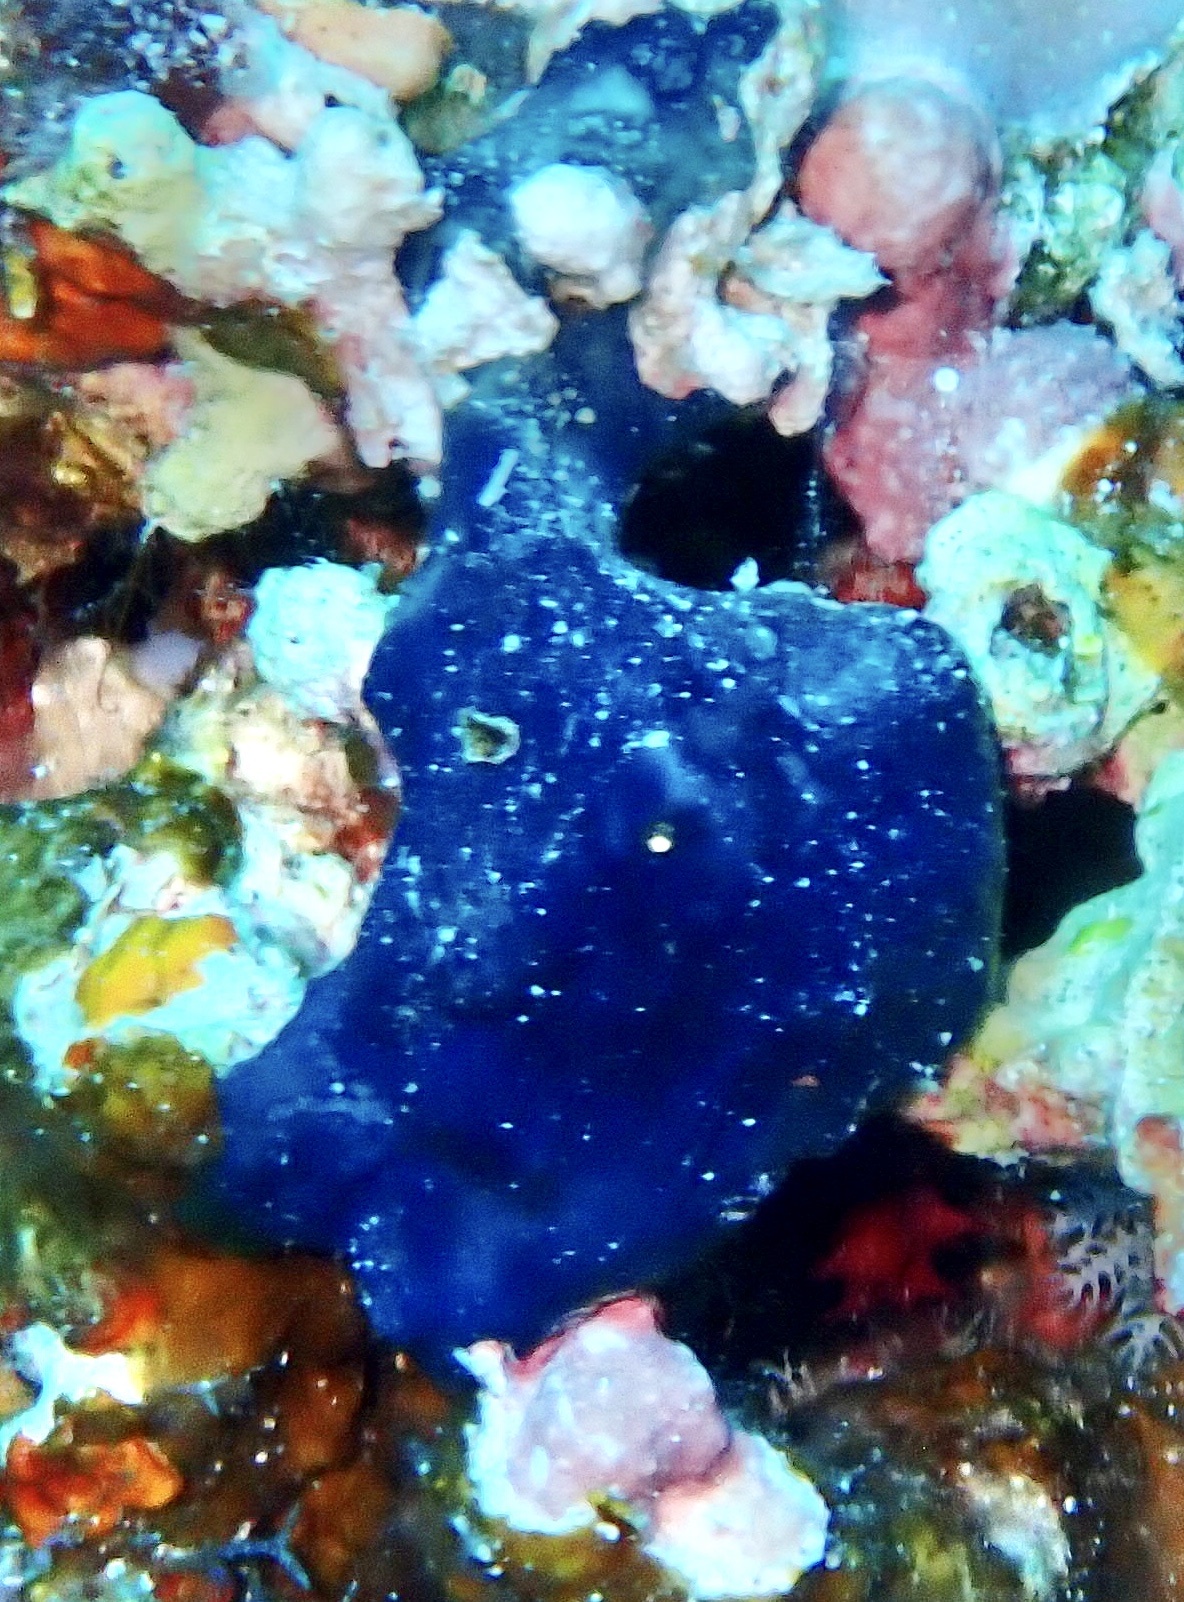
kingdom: Animalia
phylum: Porifera
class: Demospongiae
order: Poecilosclerida
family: Hymedesmiidae
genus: Hemimycale
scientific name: Hemimycale arabica
